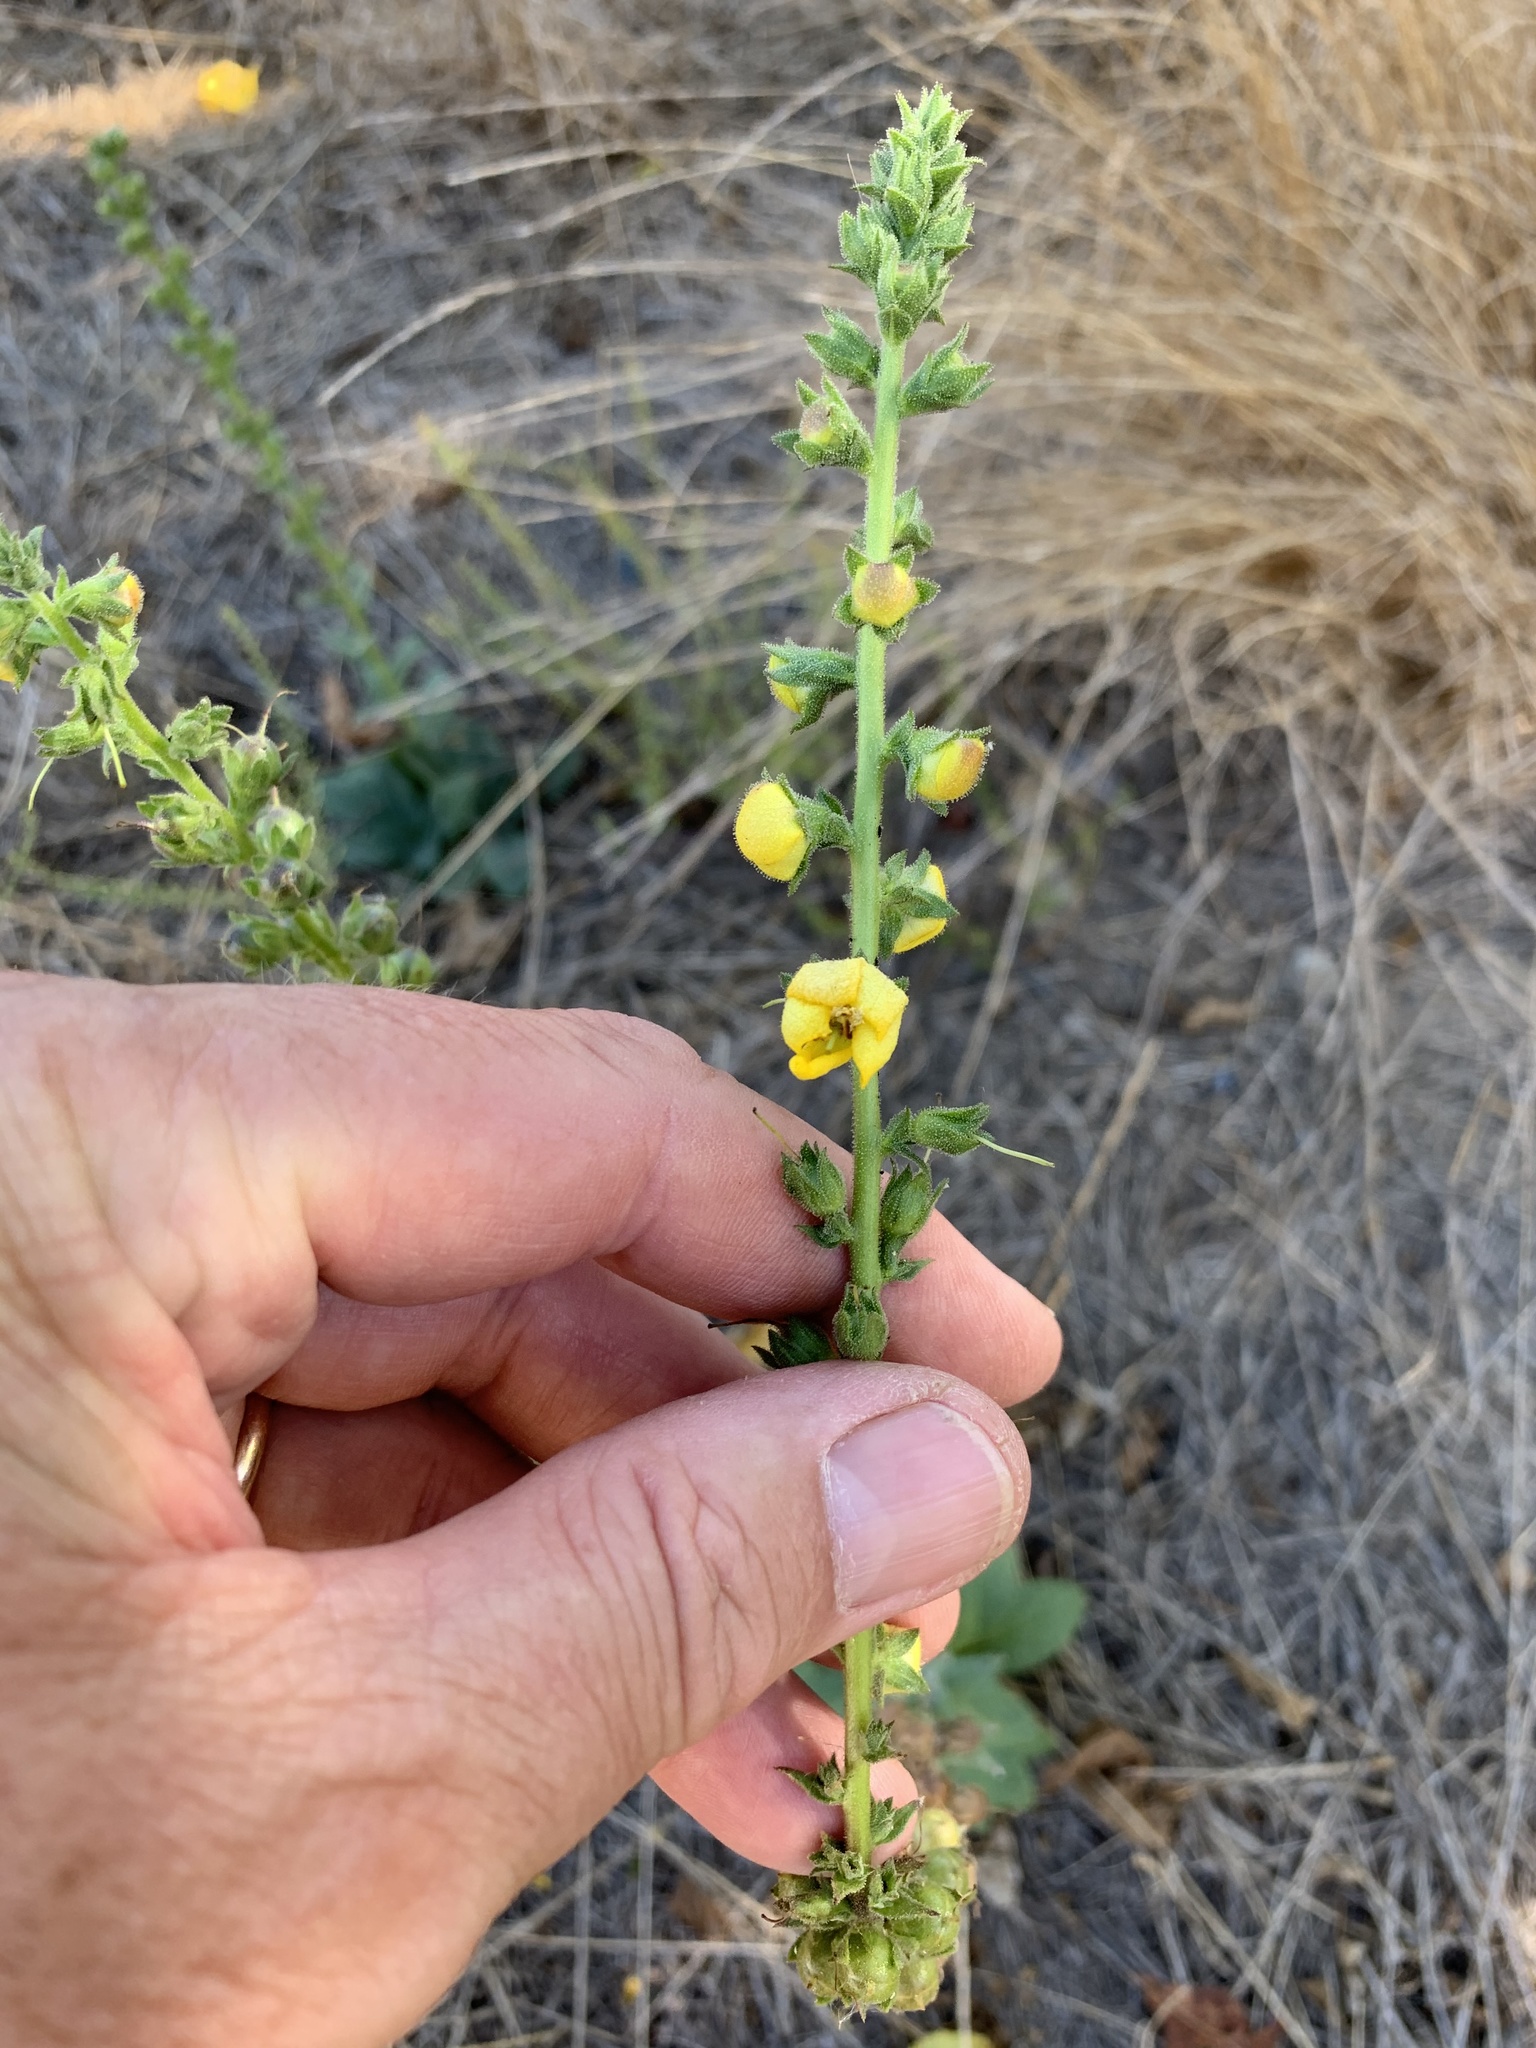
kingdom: Plantae
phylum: Tracheophyta
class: Magnoliopsida
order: Lamiales
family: Scrophulariaceae
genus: Verbascum
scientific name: Verbascum virgatum
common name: Twiggy mullein
